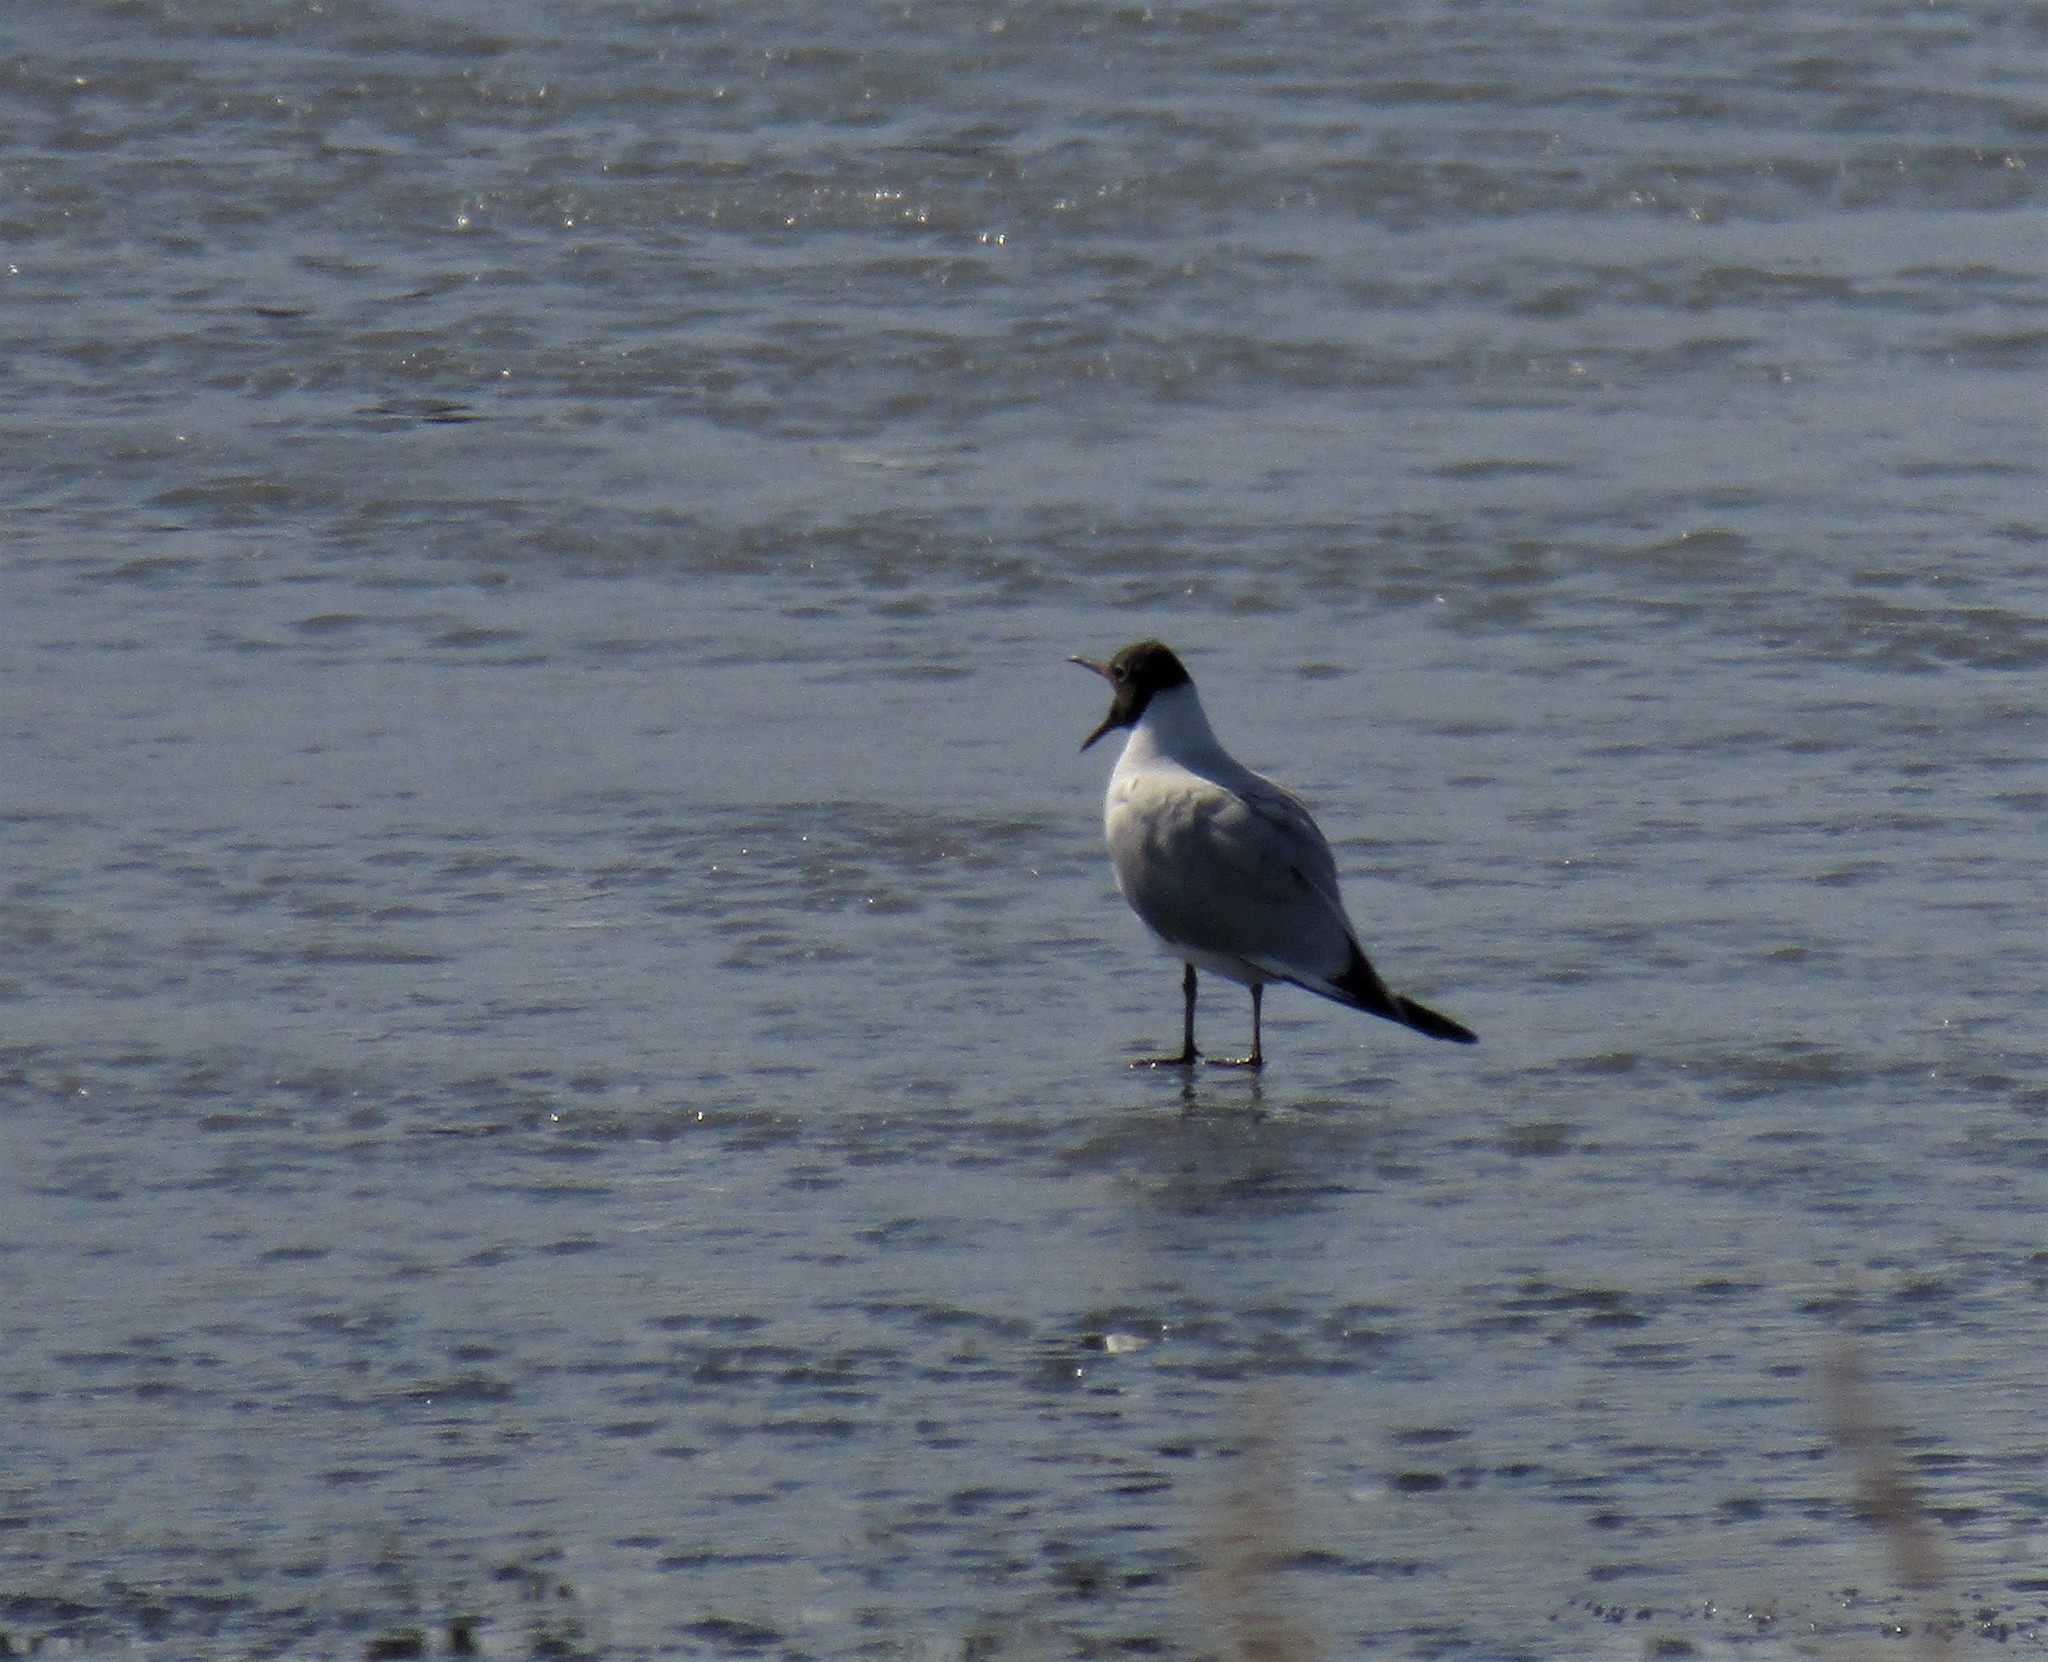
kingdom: Animalia
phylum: Chordata
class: Aves
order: Charadriiformes
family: Laridae
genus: Chroicocephalus
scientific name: Chroicocephalus ridibundus
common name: Black-headed gull
